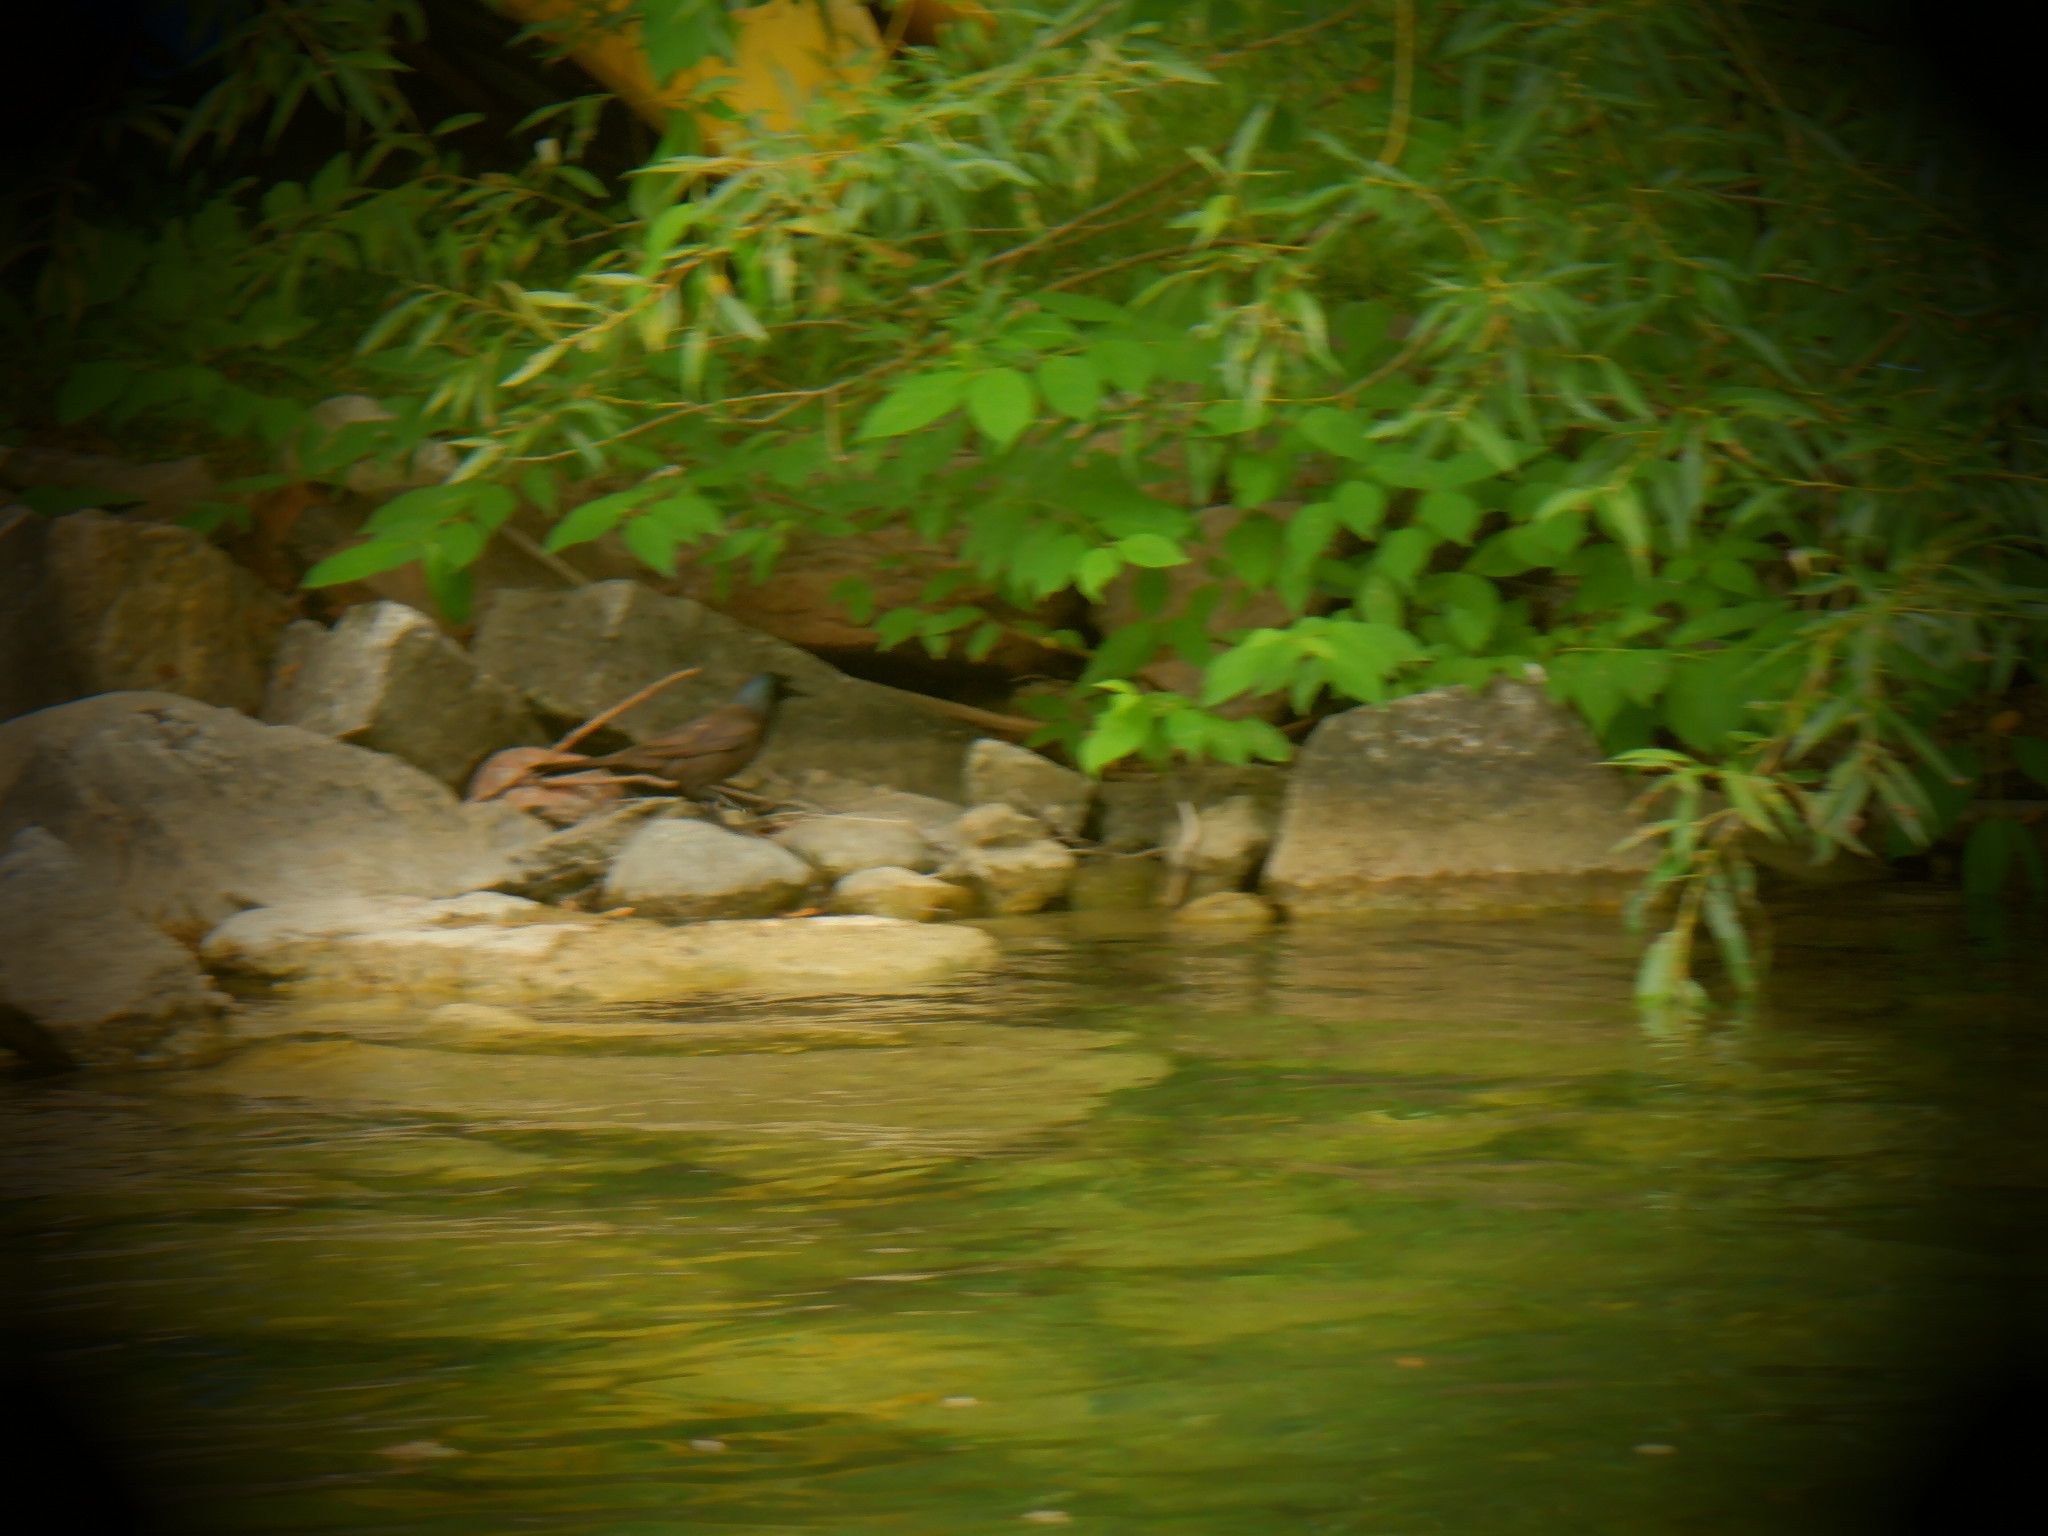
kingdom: Animalia
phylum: Chordata
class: Aves
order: Passeriformes
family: Icteridae
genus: Quiscalus
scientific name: Quiscalus quiscula
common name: Common grackle
